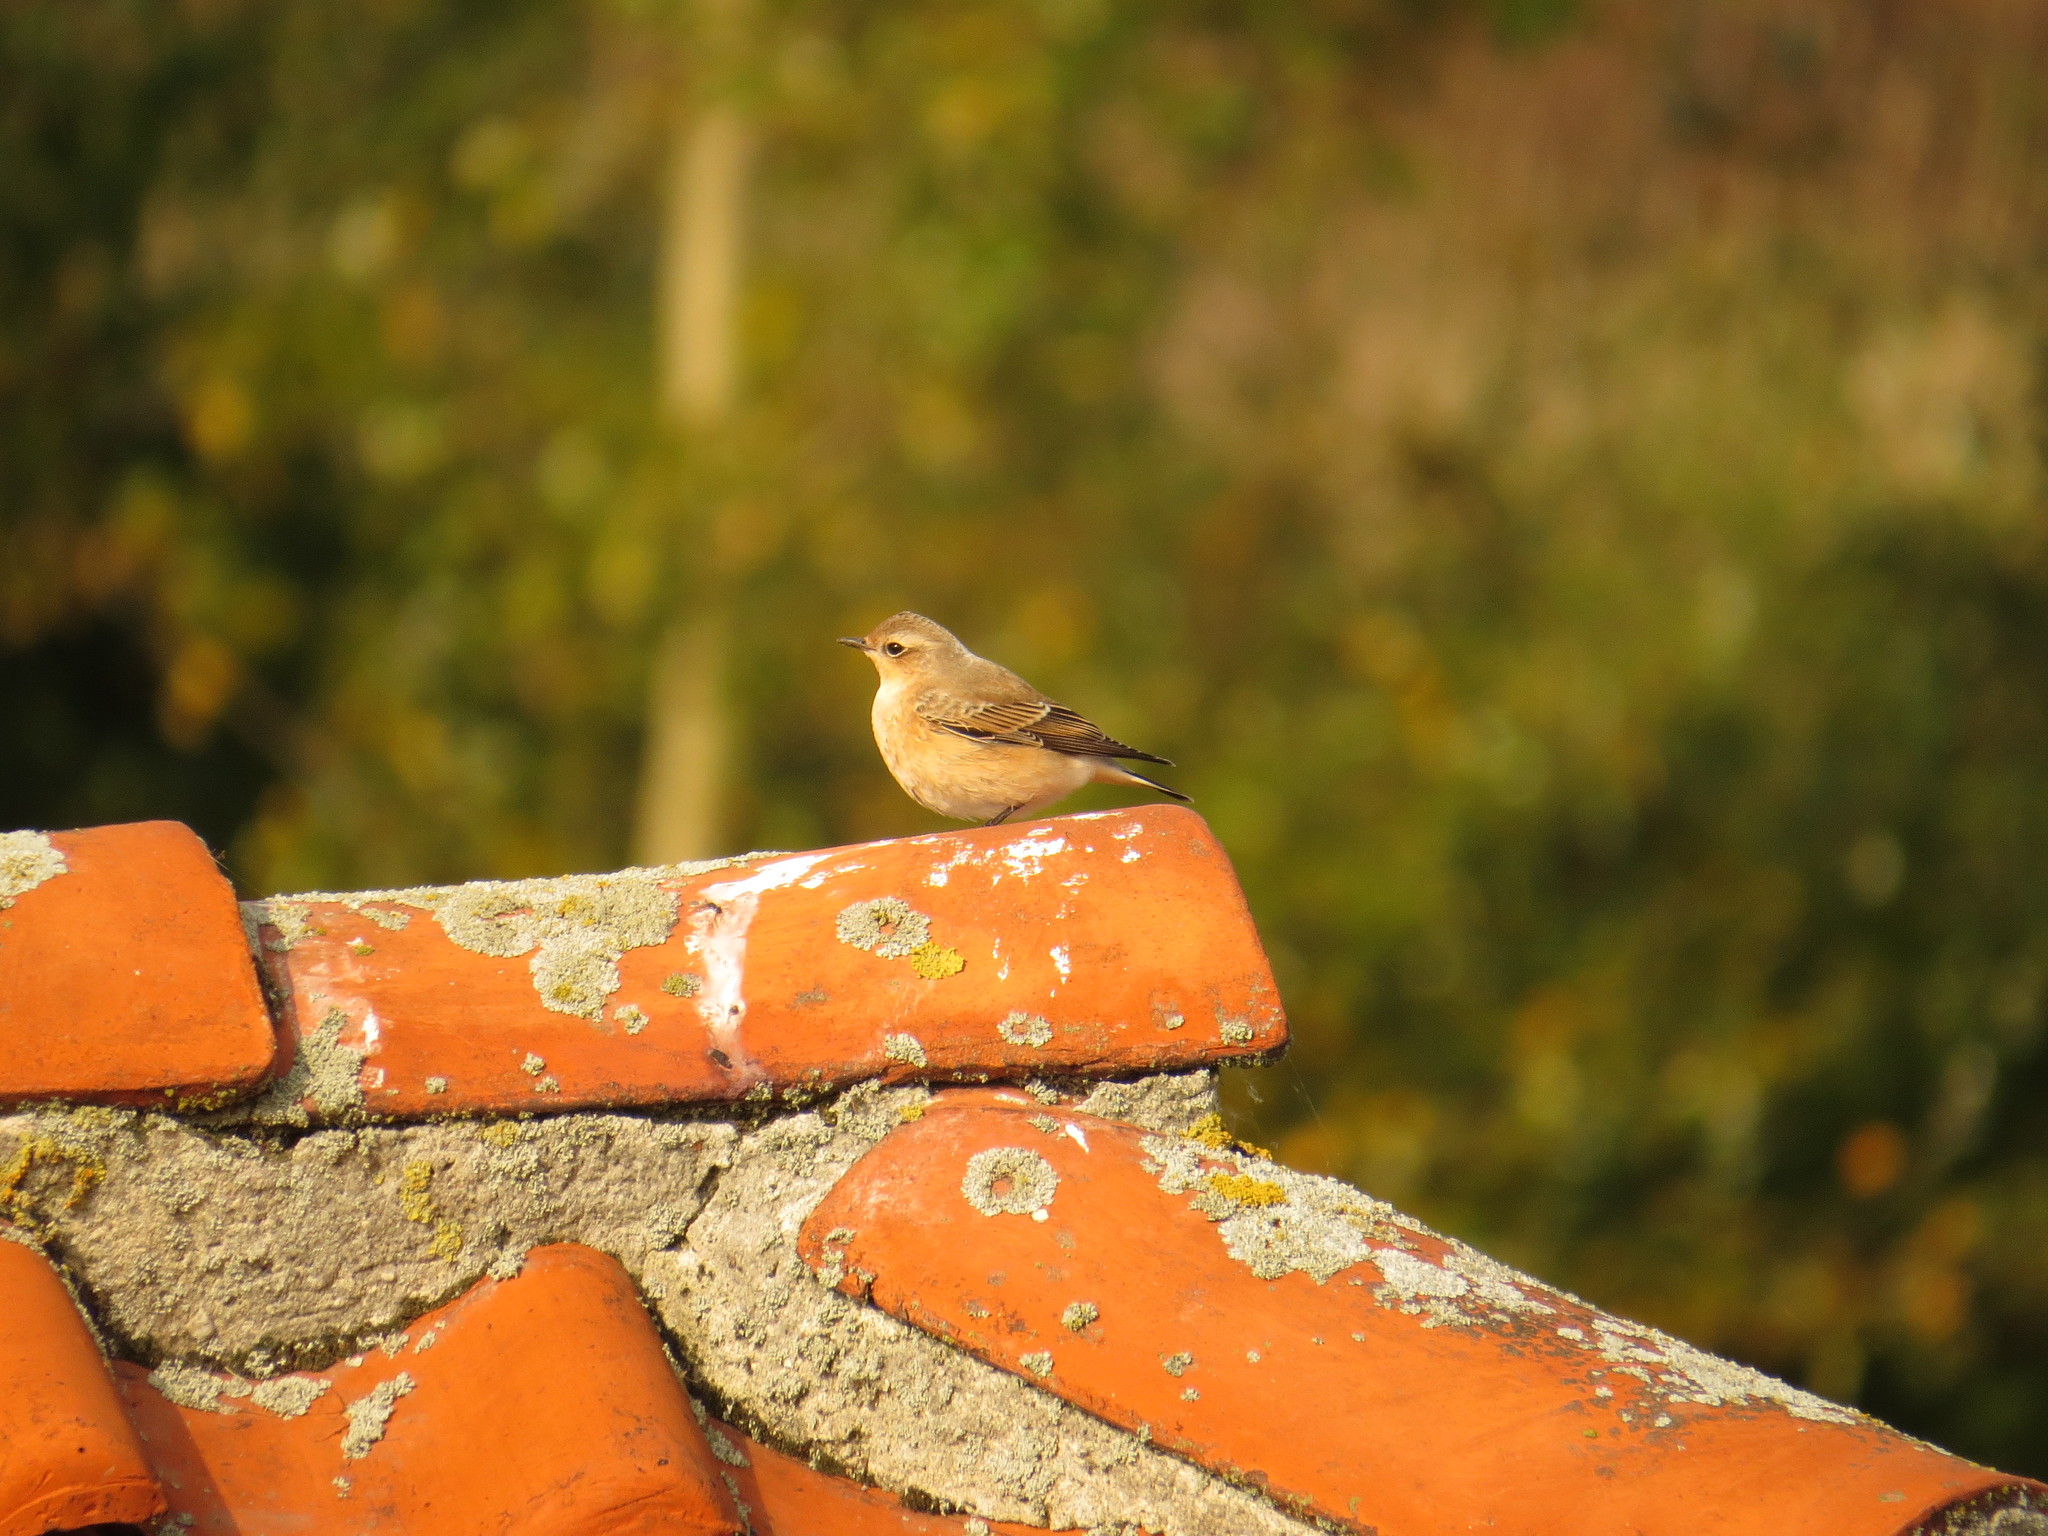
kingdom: Animalia
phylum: Chordata
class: Aves
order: Passeriformes
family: Muscicapidae
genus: Oenanthe
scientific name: Oenanthe oenanthe
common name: Northern wheatear
